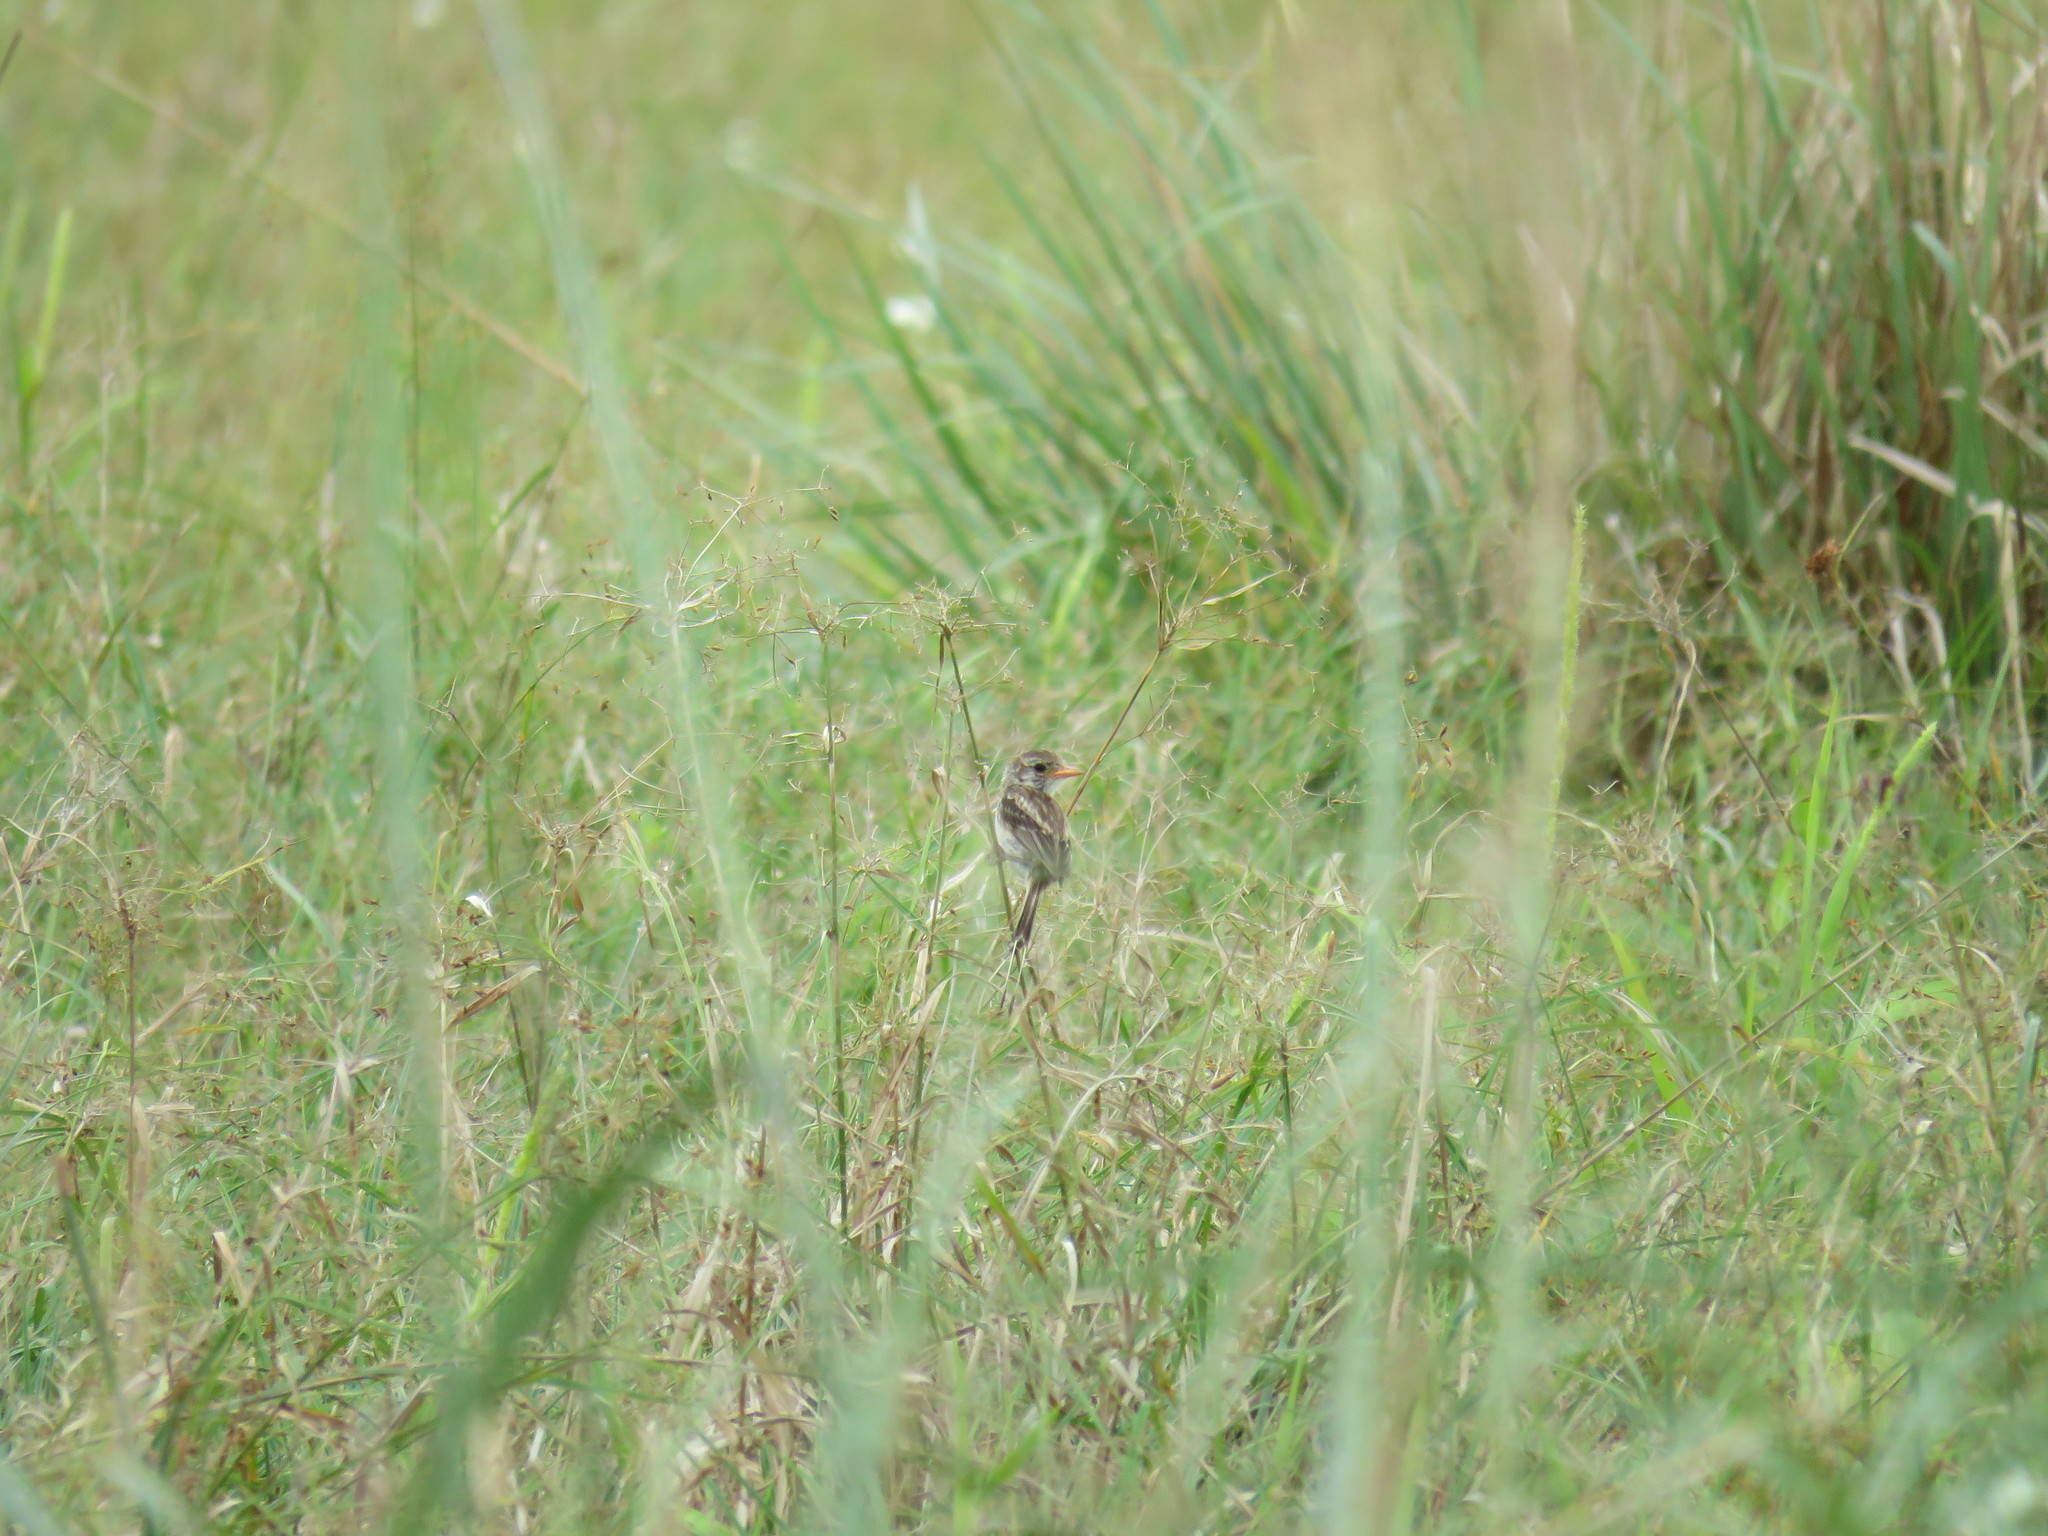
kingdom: Animalia
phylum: Chordata
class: Aves
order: Passeriformes
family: Tyrannidae
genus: Alectrurus
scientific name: Alectrurus risora
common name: Strange-tailed tyrant
